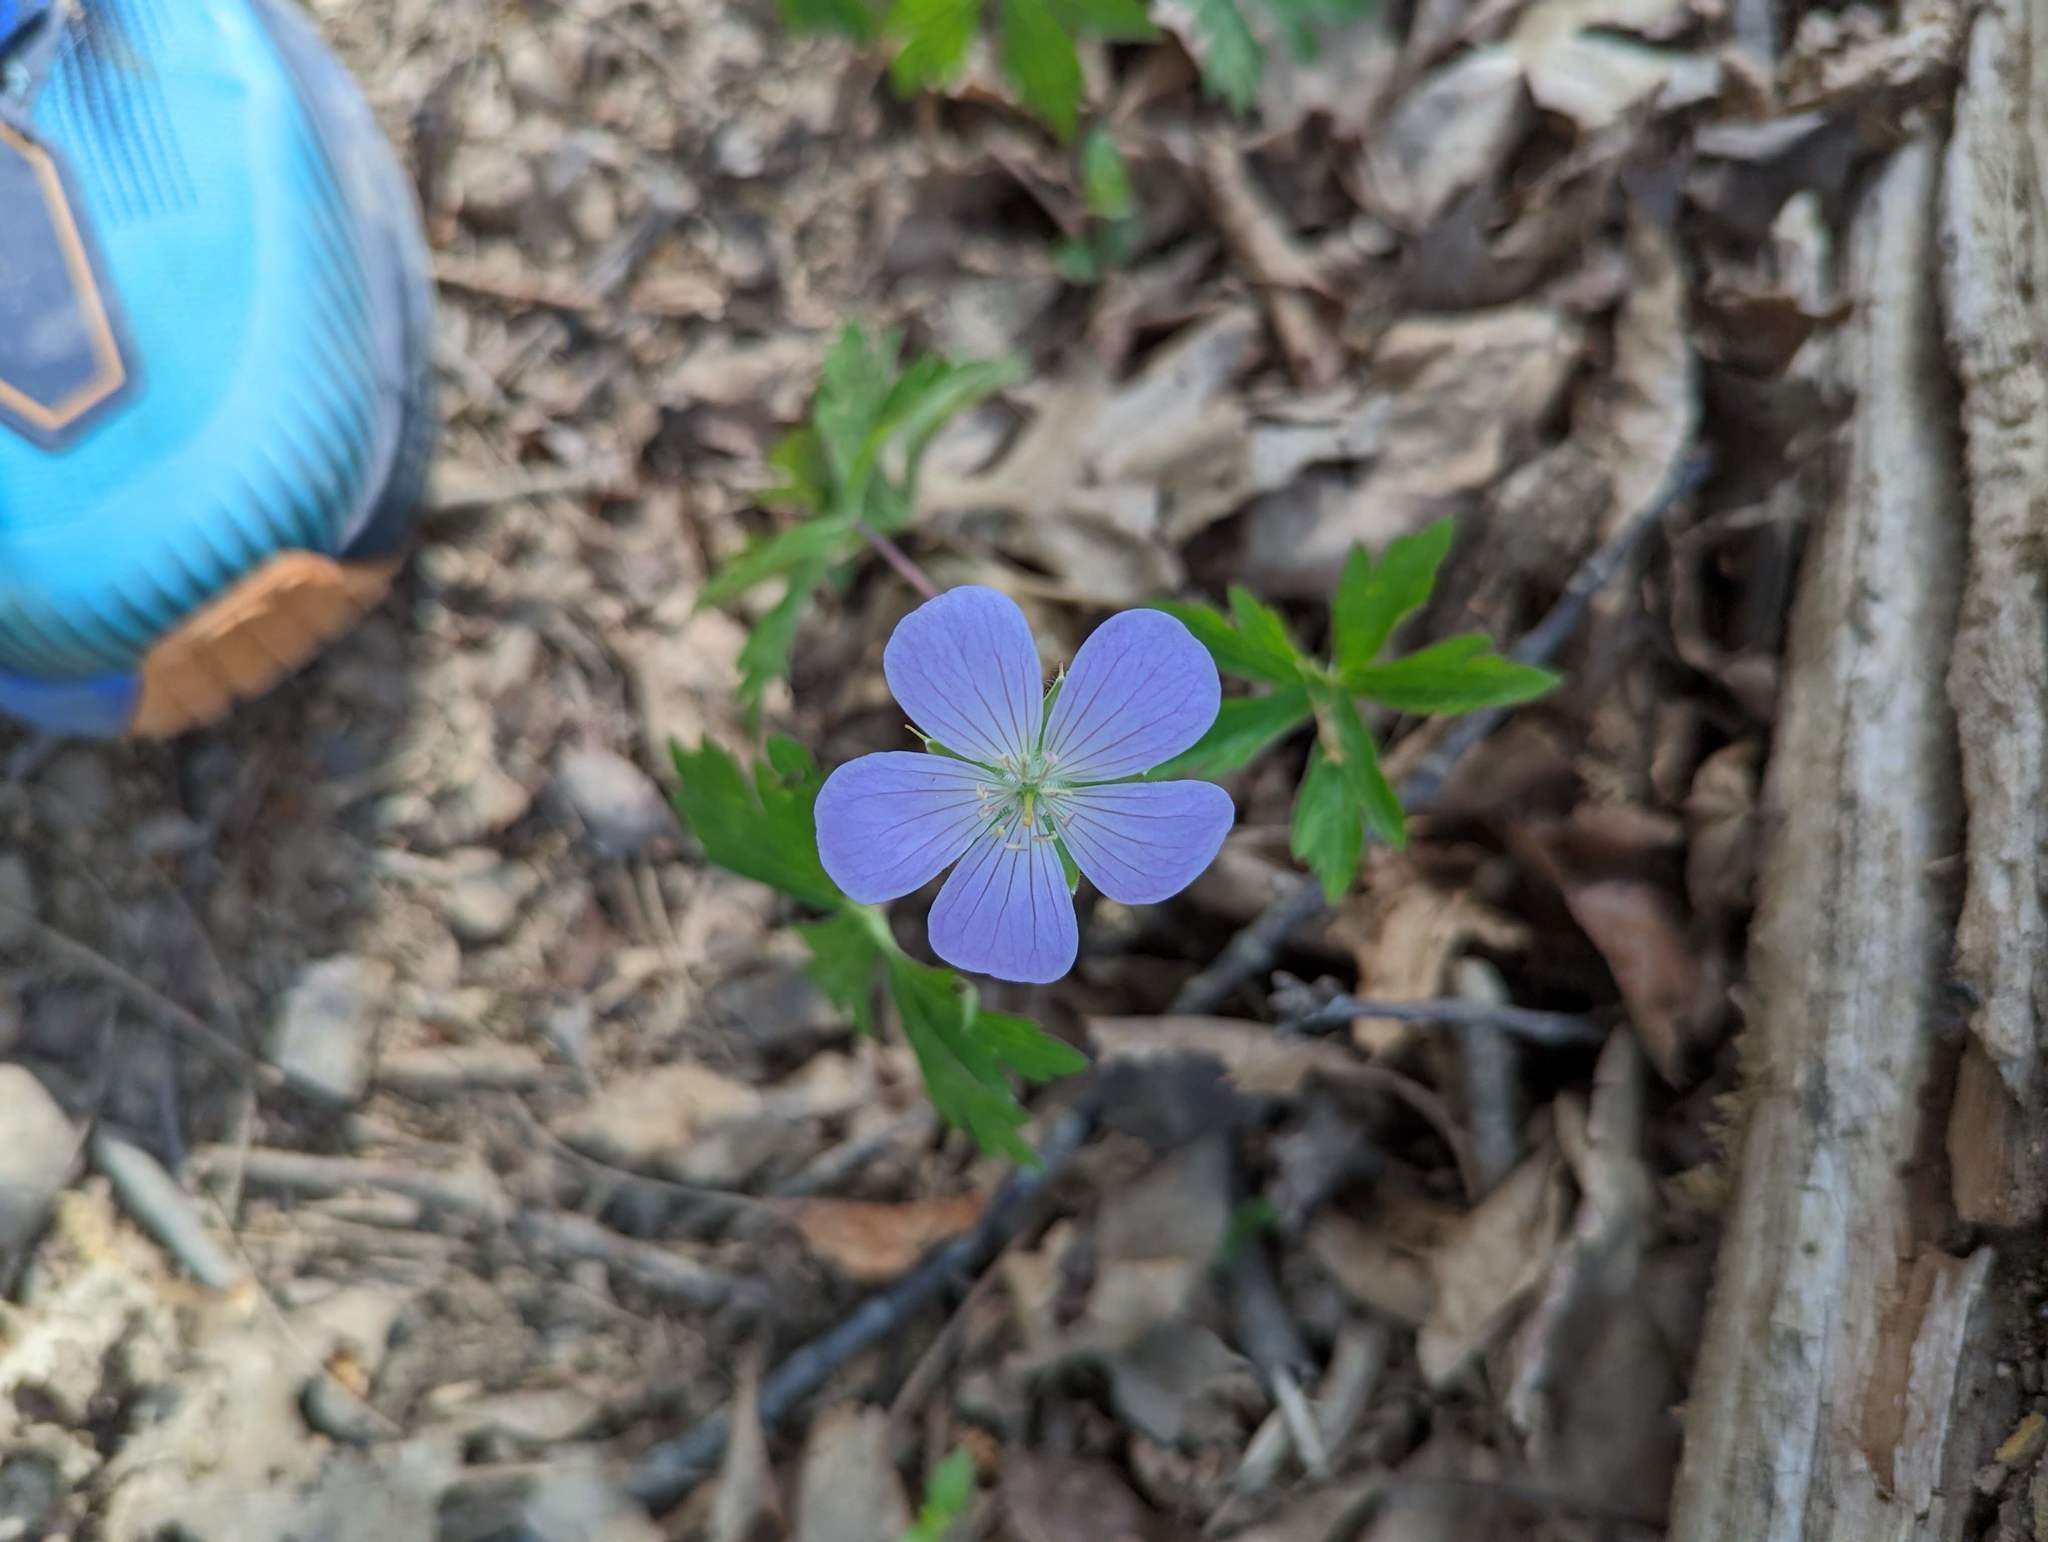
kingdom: Plantae
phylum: Tracheophyta
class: Magnoliopsida
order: Geraniales
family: Geraniaceae
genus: Geranium
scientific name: Geranium maculatum
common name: Spotted geranium
